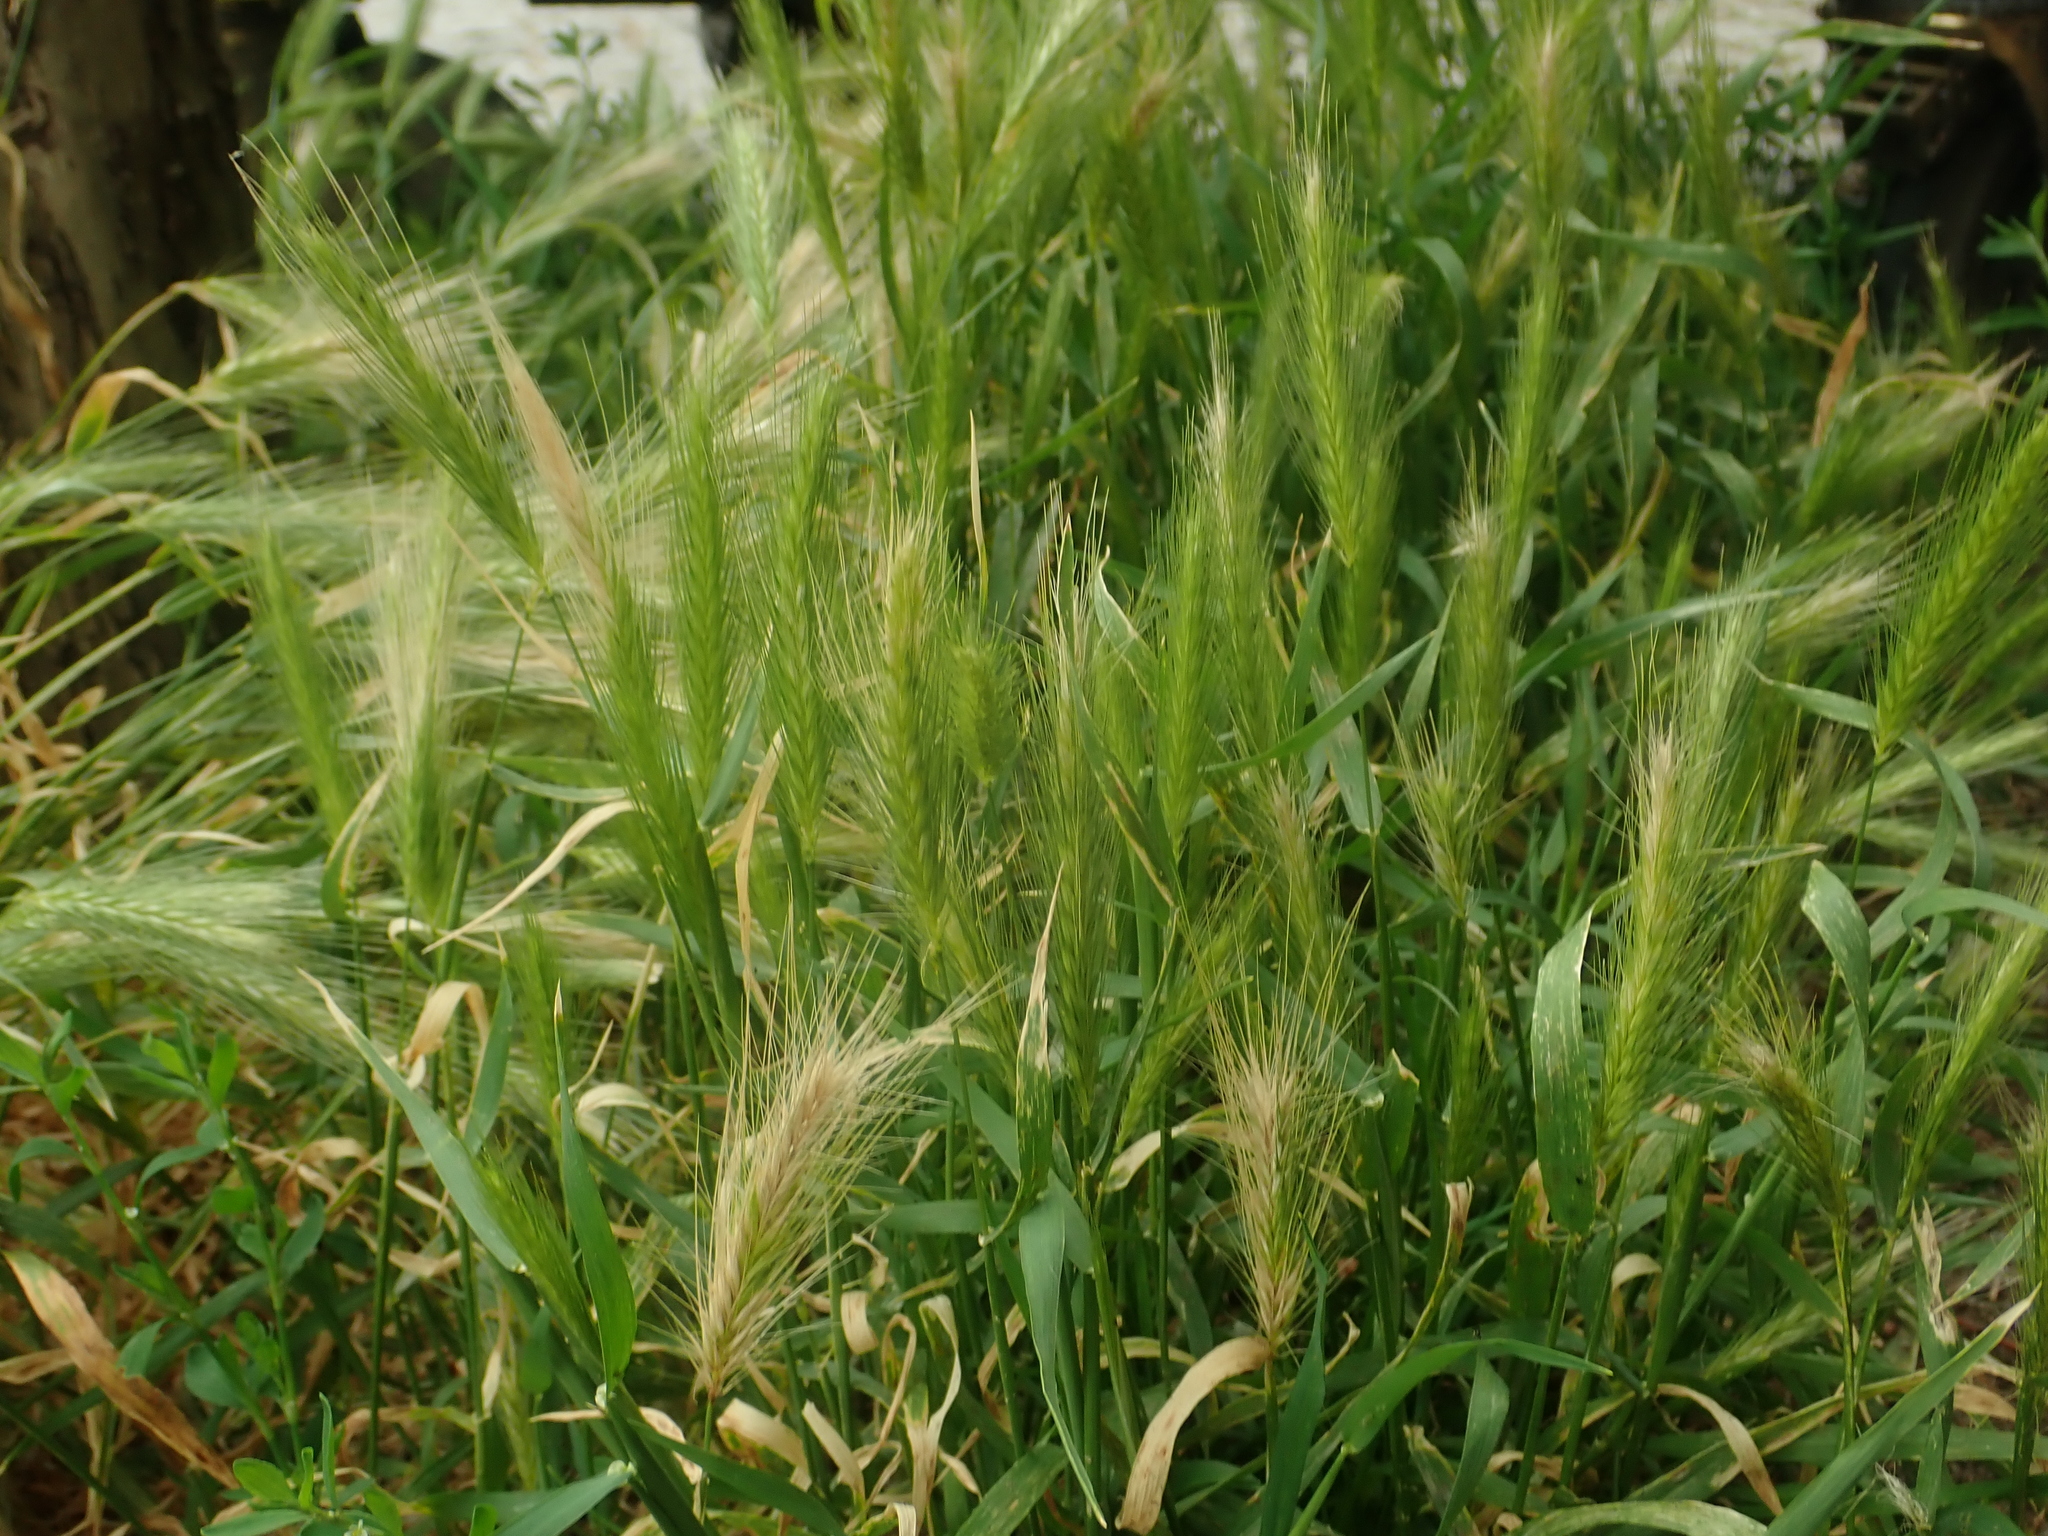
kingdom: Plantae
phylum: Tracheophyta
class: Liliopsida
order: Poales
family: Poaceae
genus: Hordeum
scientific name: Hordeum murinum
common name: Wall barley
